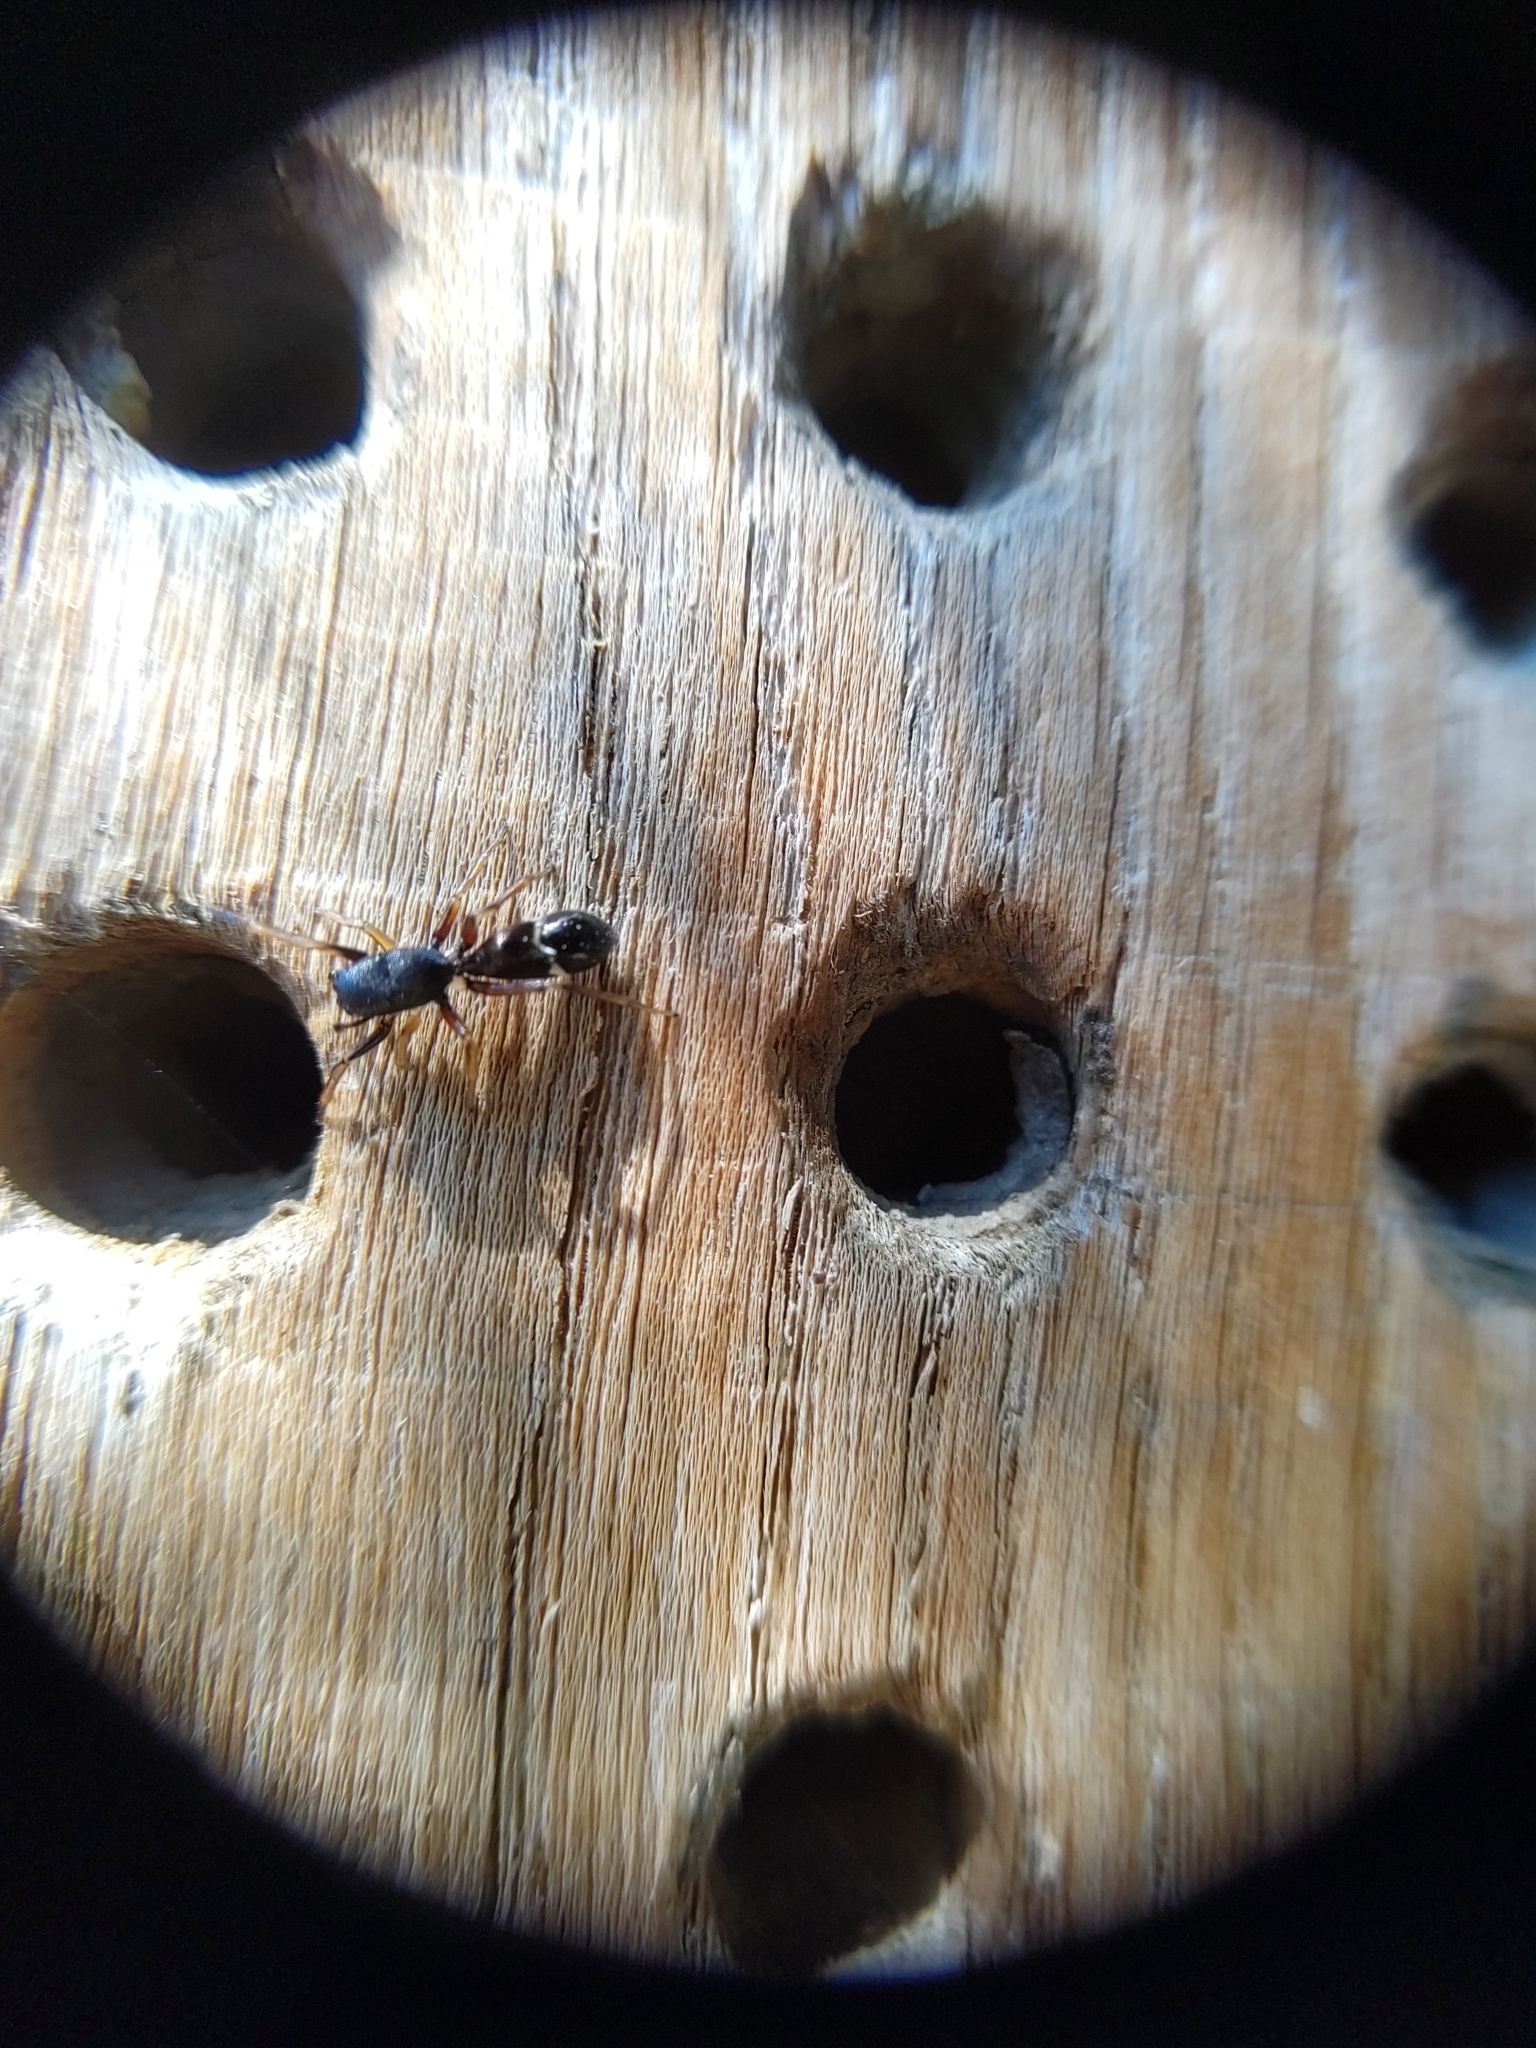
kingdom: Animalia
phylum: Arthropoda
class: Arachnida
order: Araneae
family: Salticidae
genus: Leptorchestes
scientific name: Leptorchestes berolinensis
